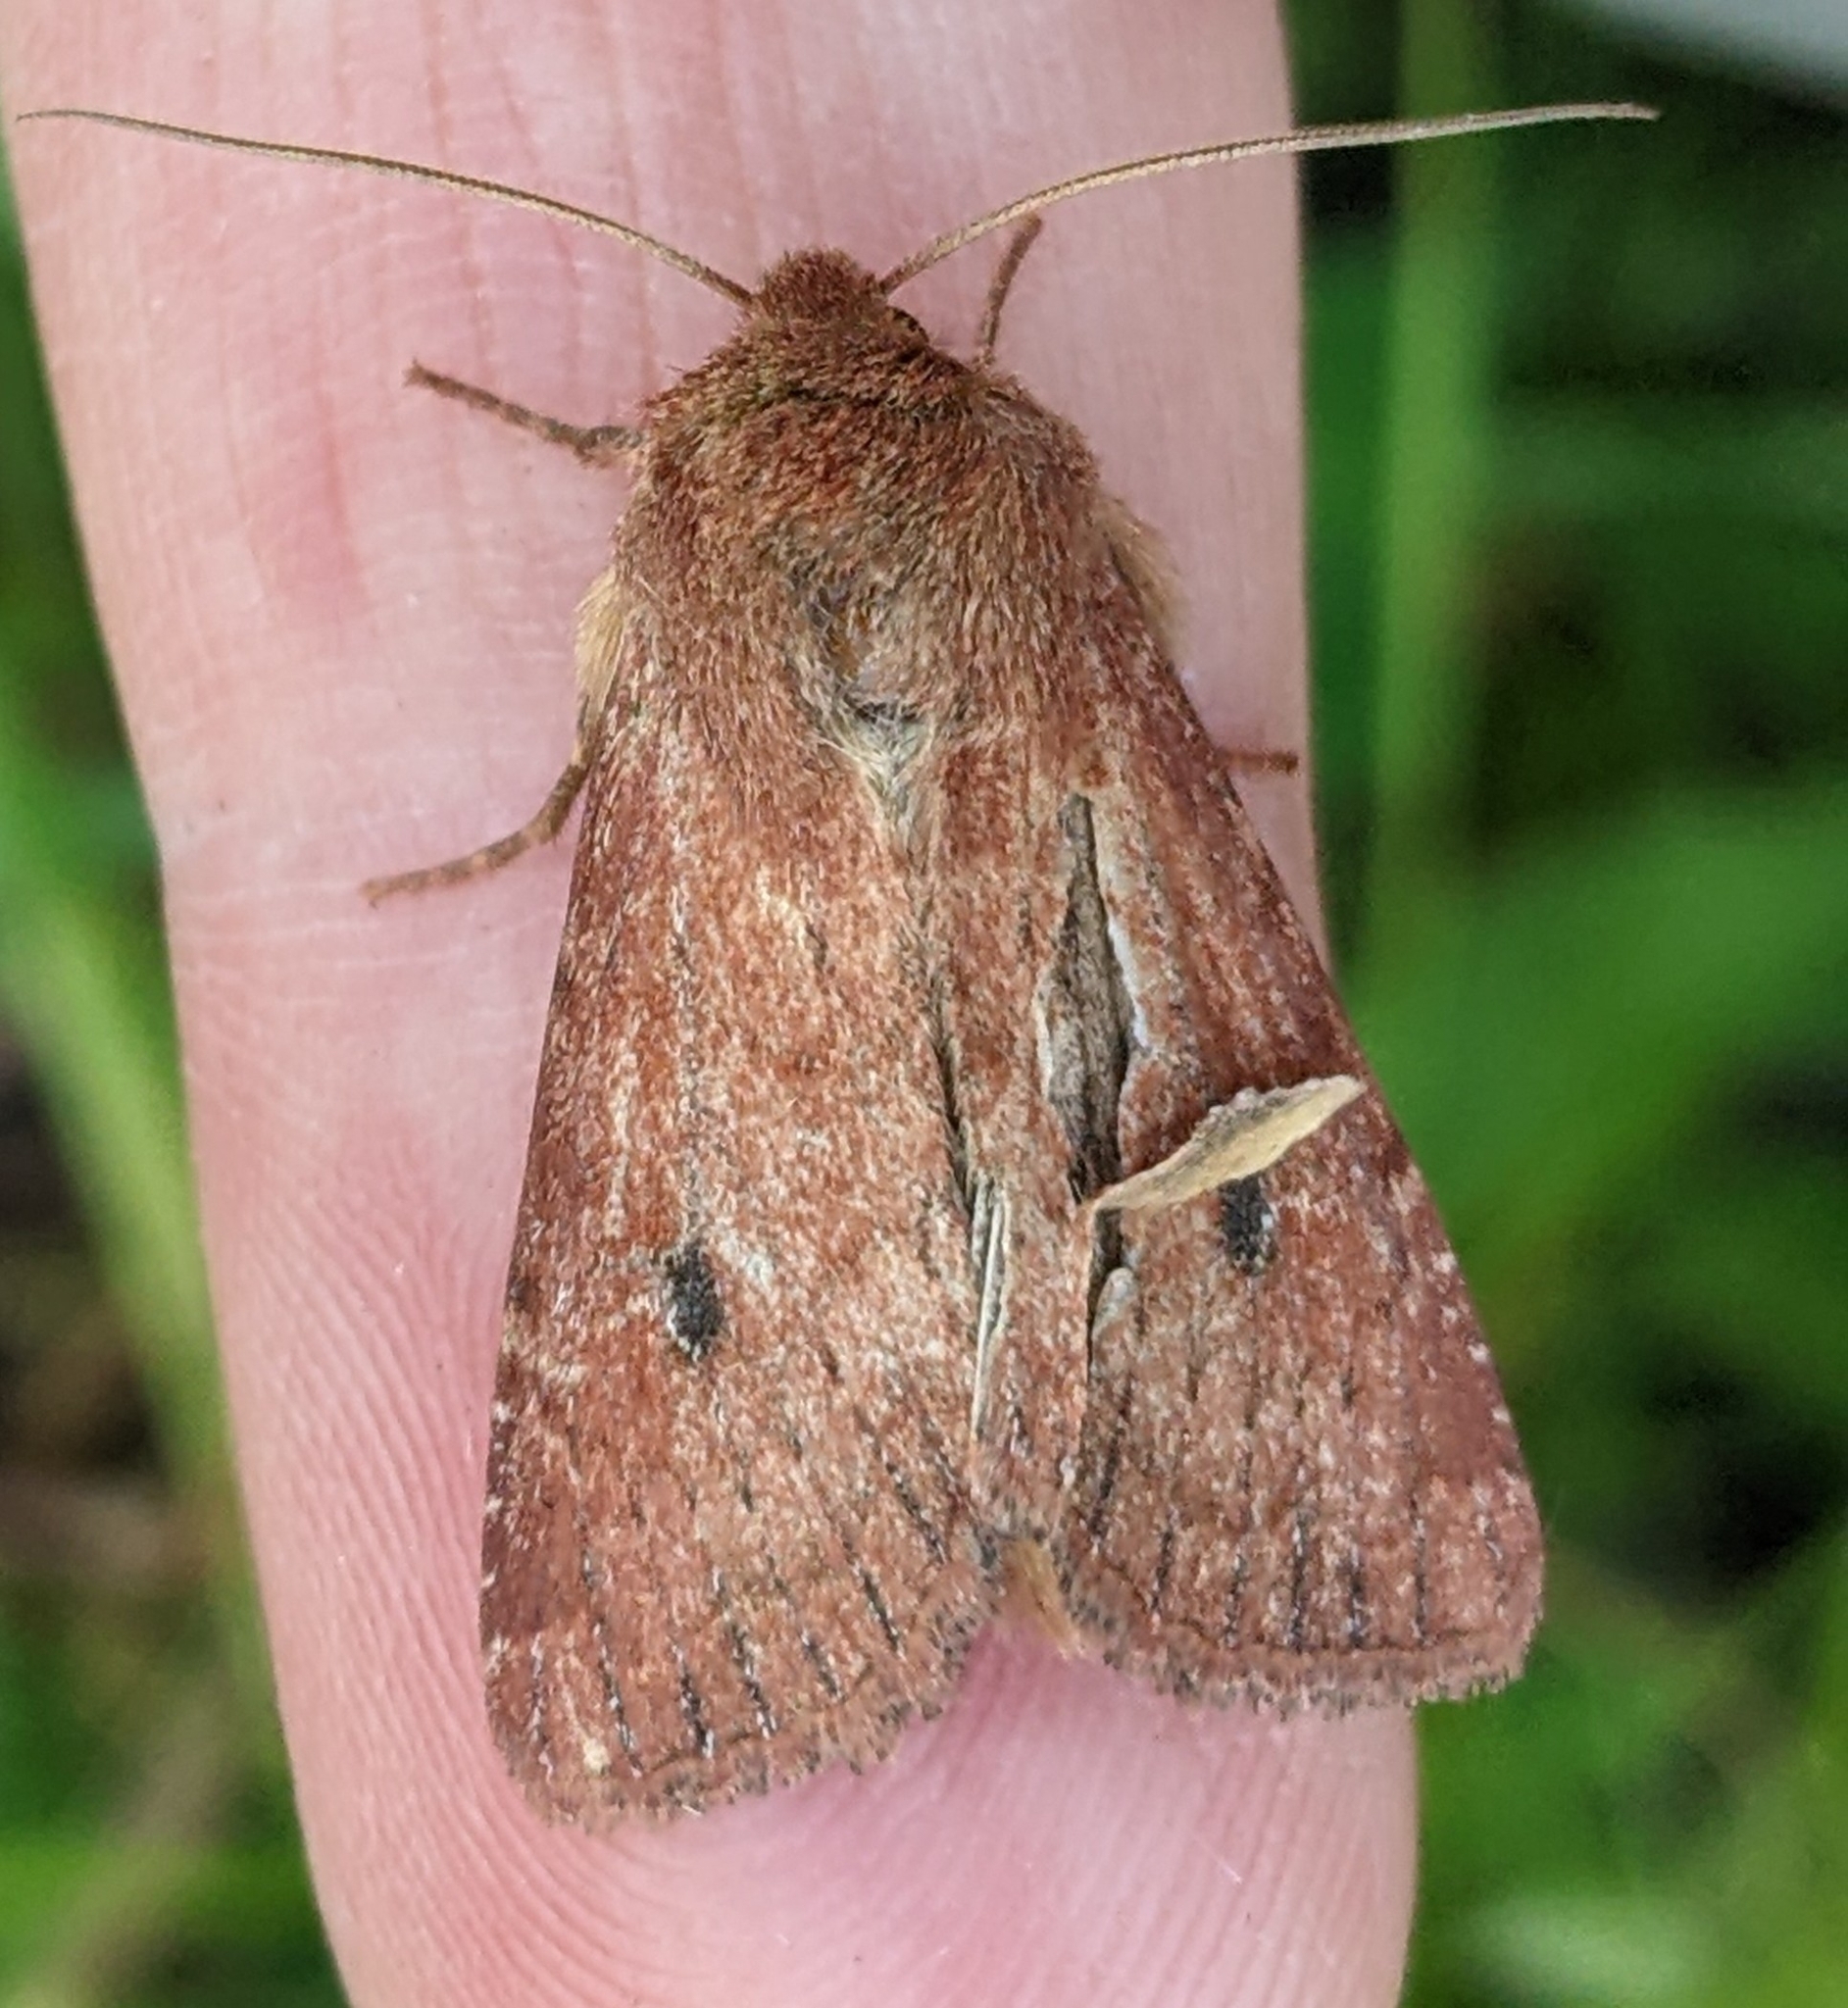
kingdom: Animalia
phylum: Arthropoda
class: Insecta
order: Lepidoptera
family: Noctuidae
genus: Apamea
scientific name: Apamea scoparia
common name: Faint-spotted quaker
